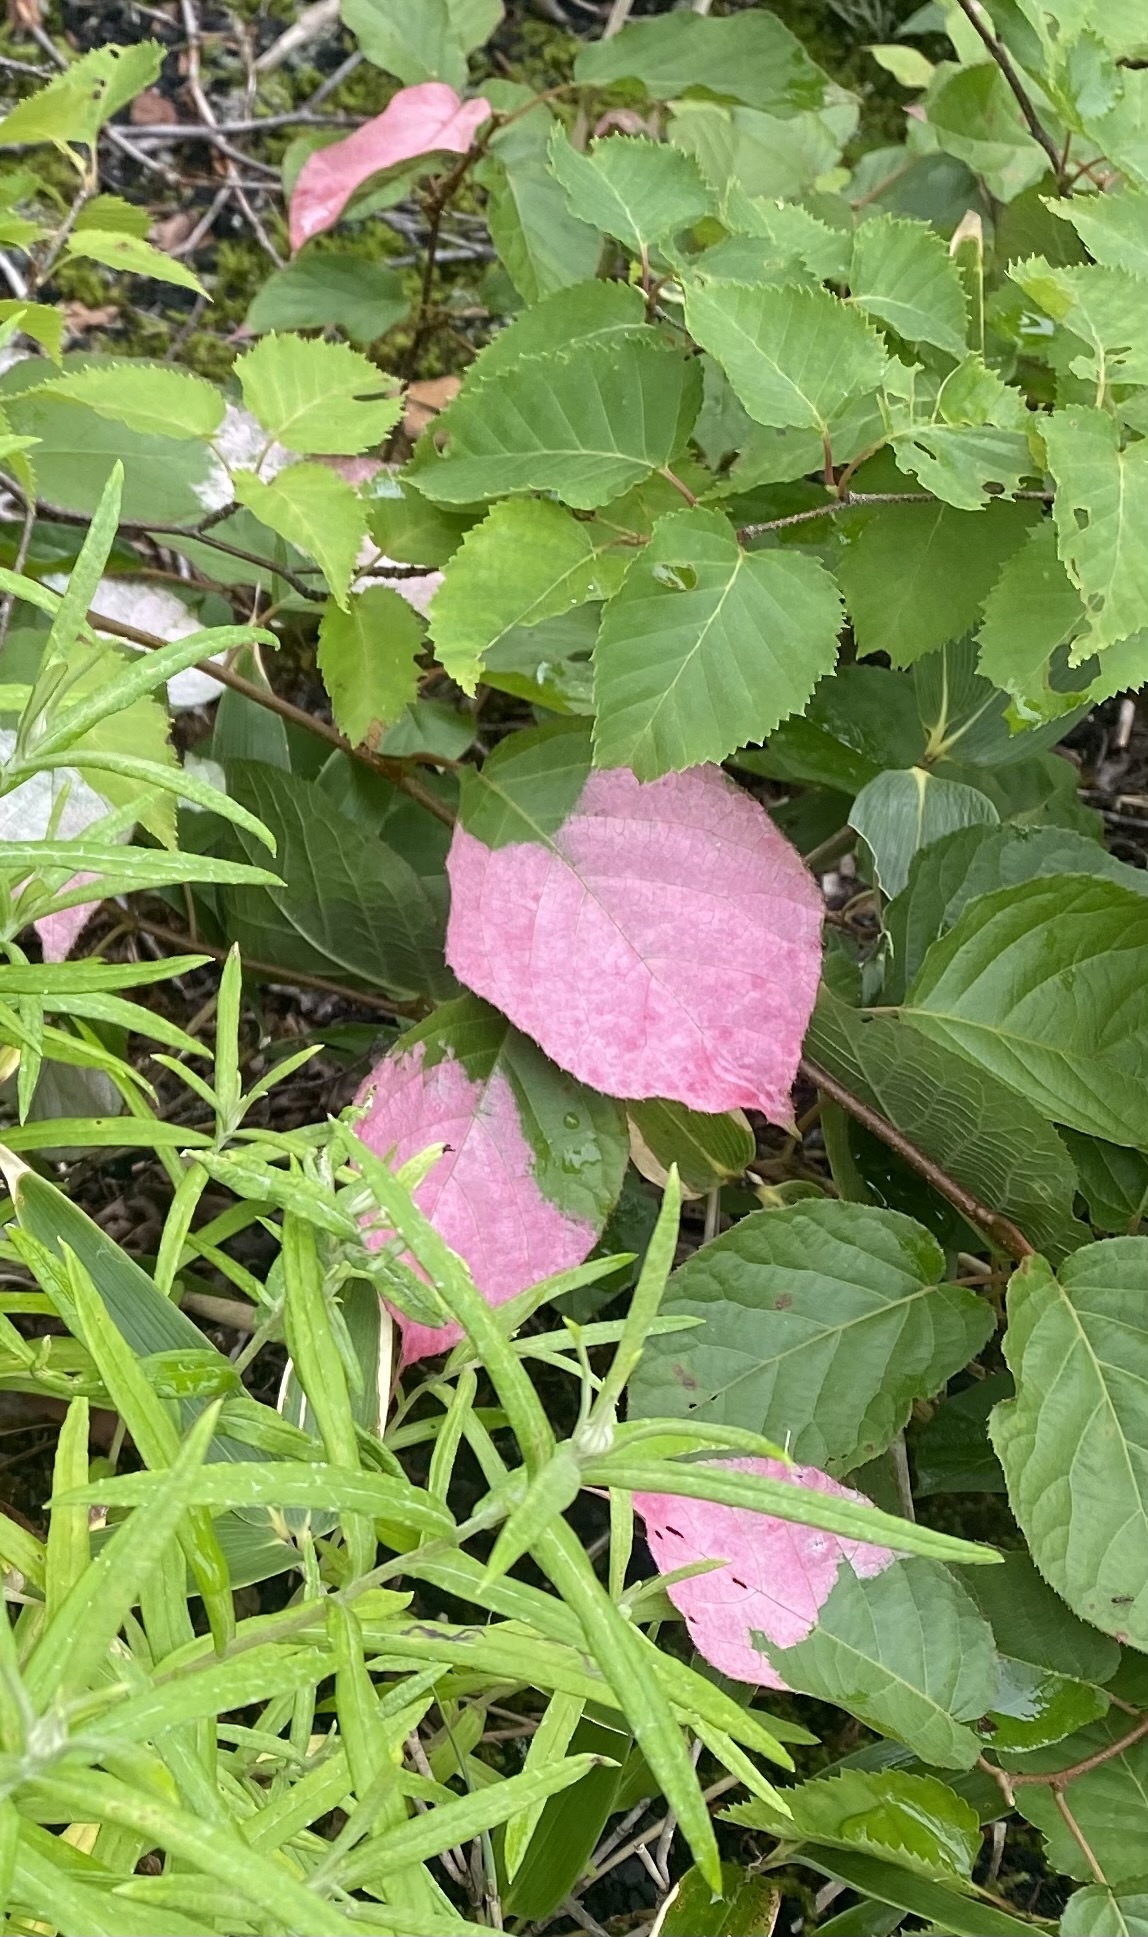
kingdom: Plantae
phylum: Tracheophyta
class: Magnoliopsida
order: Ericales
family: Actinidiaceae
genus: Actinidia
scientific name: Actinidia kolomikta
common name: Arctic beauty kiwi
